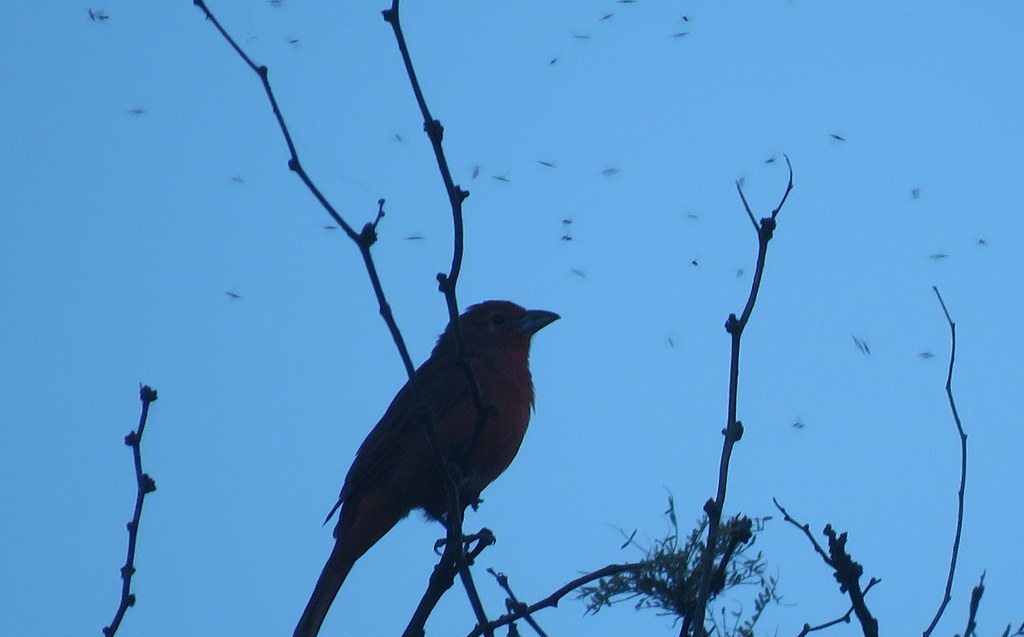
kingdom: Animalia
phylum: Chordata
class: Aves
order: Passeriformes
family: Cardinalidae
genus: Piranga
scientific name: Piranga flava
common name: Red tanager
